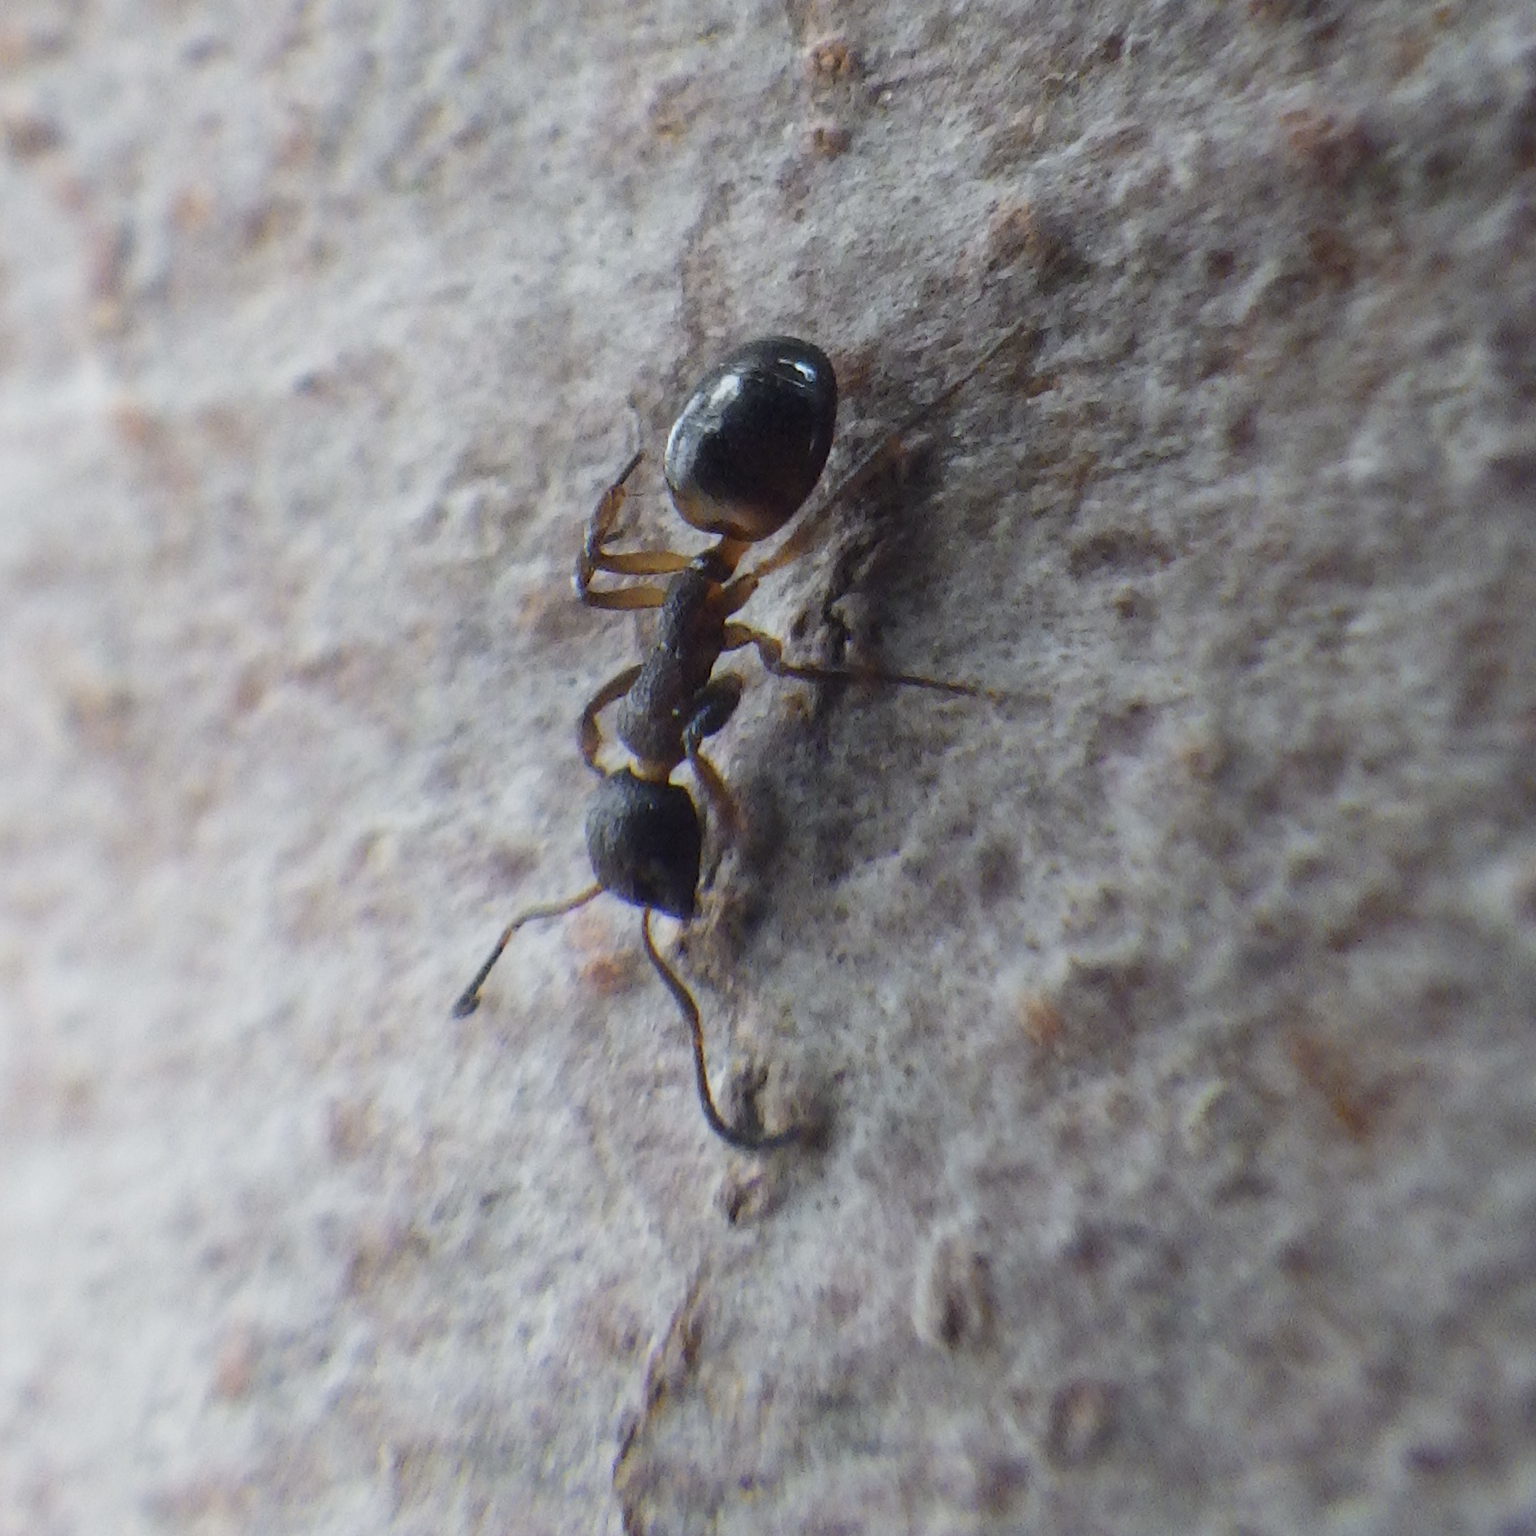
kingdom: Animalia
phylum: Arthropoda
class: Insecta
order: Hymenoptera
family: Formicidae
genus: Dolichoderus
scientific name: Dolichoderus plagiatus
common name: Mottled dolichoderus
